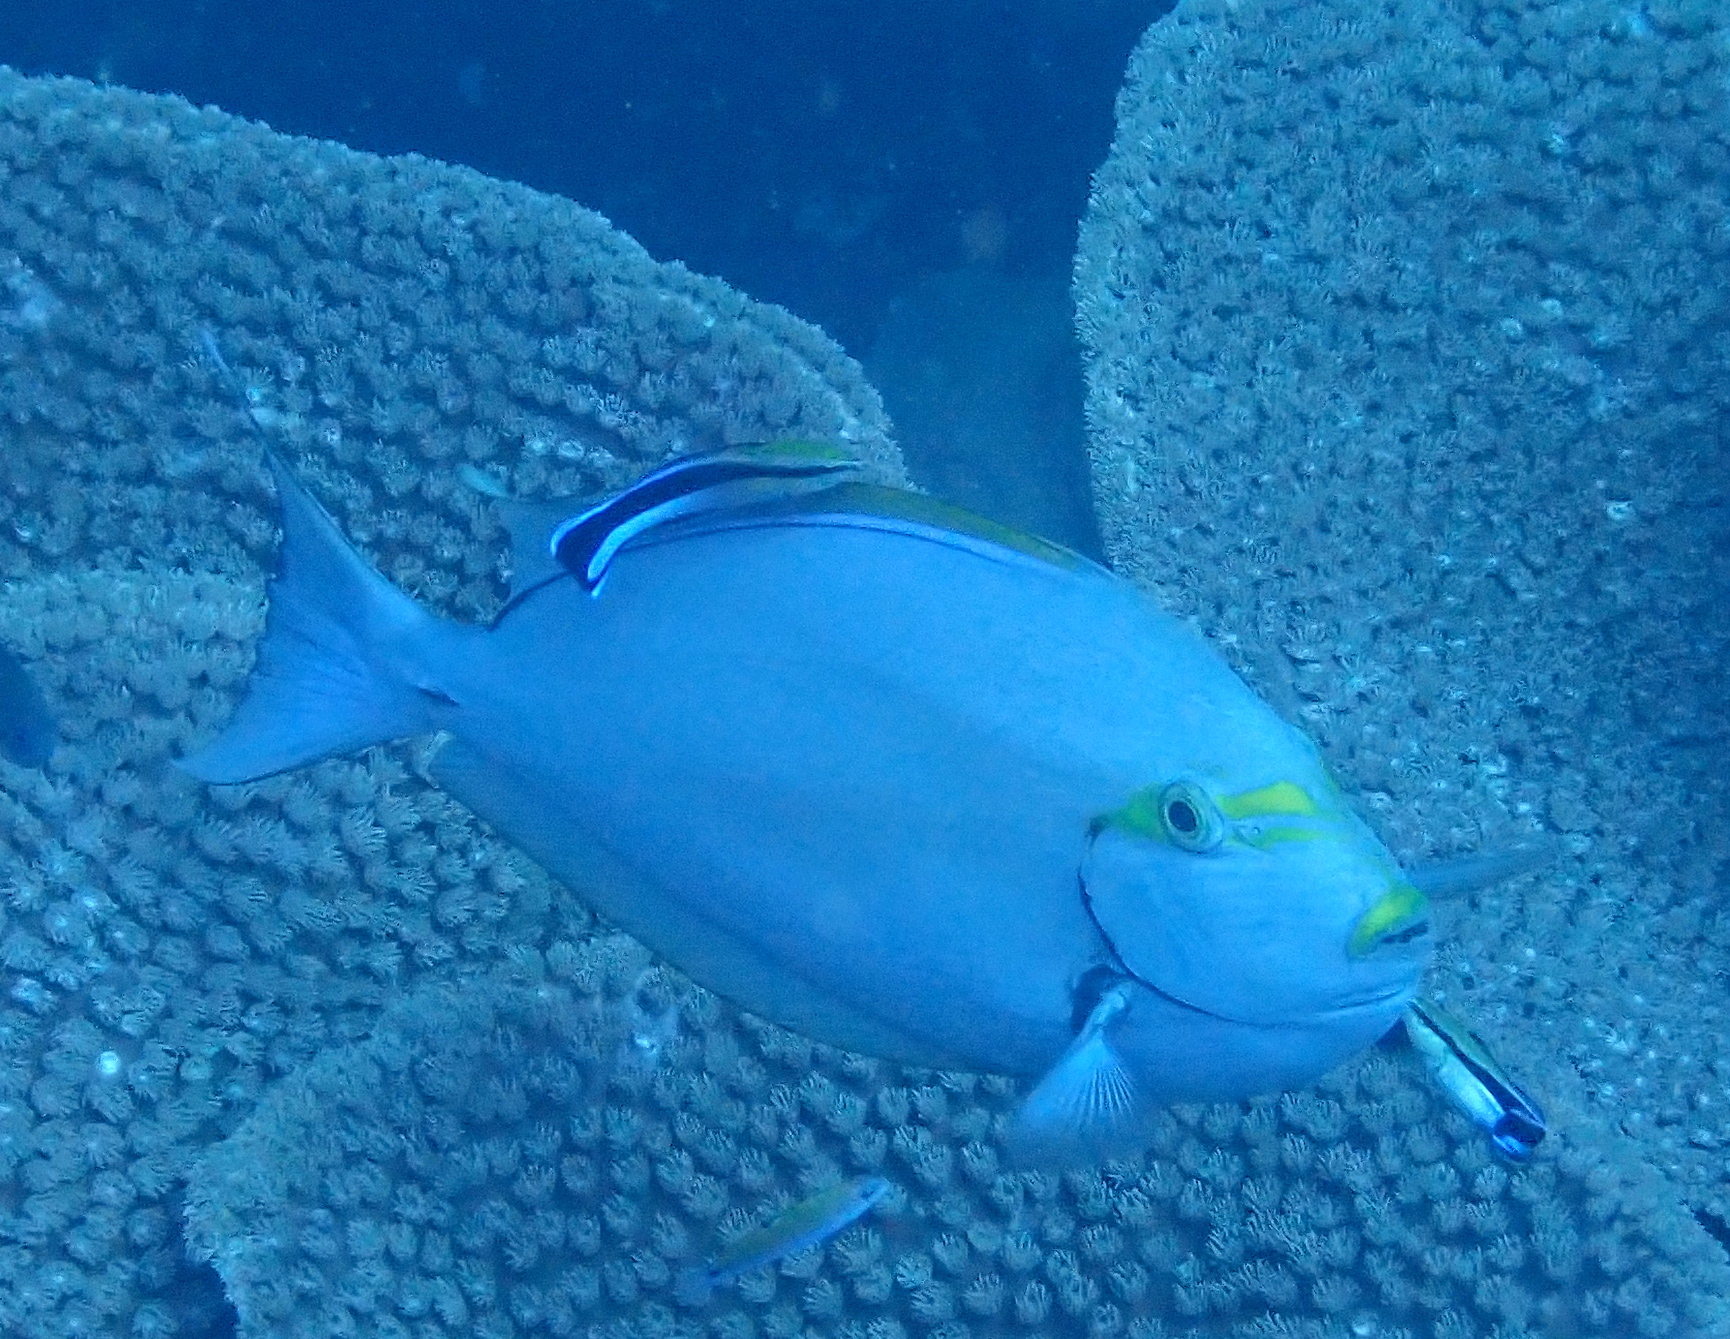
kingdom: Animalia
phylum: Chordata
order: Perciformes
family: Acanthuridae
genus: Acanthurus
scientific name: Acanthurus mata
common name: Bleeker's surgeonfish
